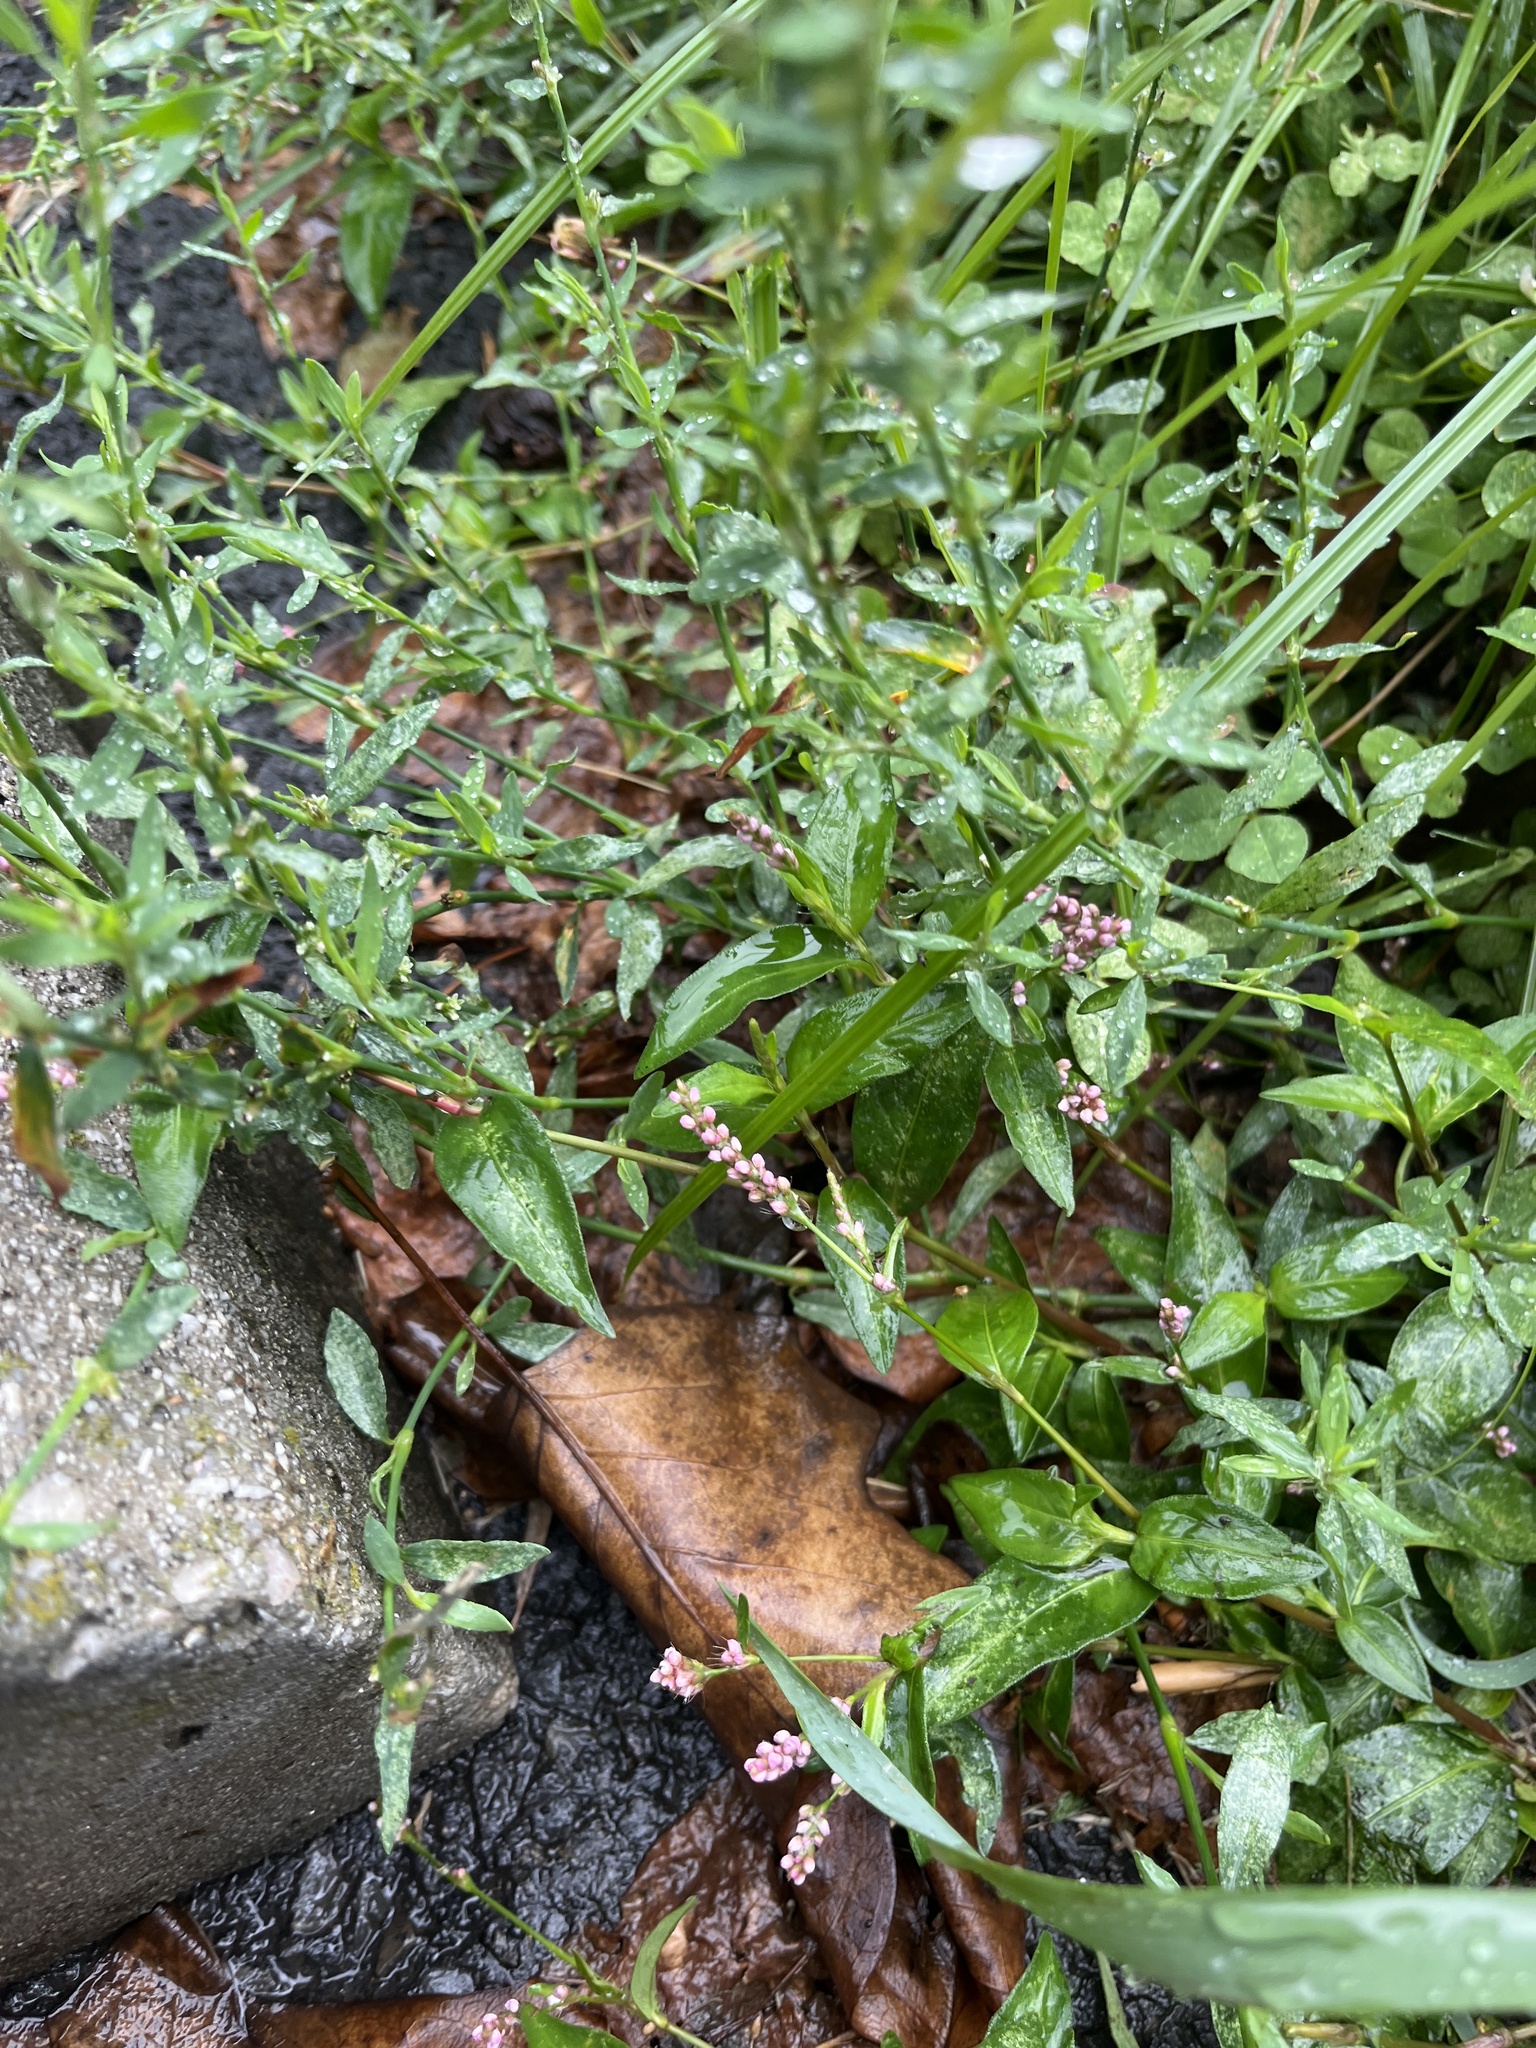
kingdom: Plantae
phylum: Tracheophyta
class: Magnoliopsida
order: Caryophyllales
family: Polygonaceae
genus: Persicaria
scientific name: Persicaria longiseta
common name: Bristly lady's-thumb
